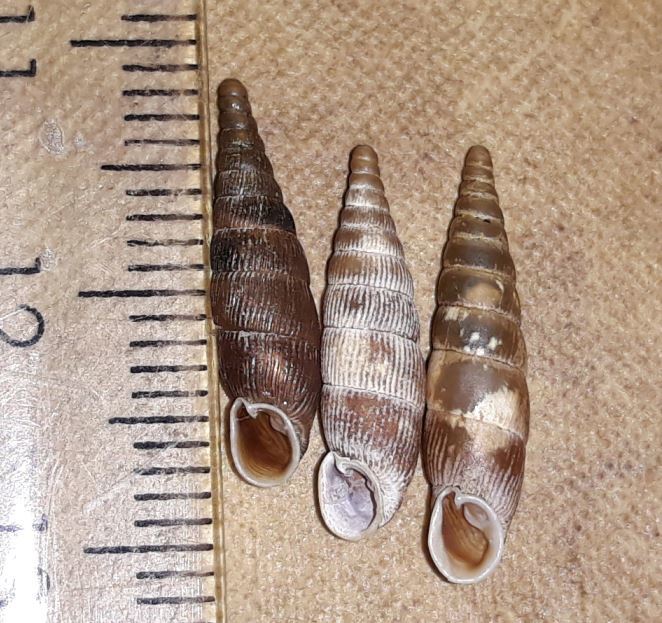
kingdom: Animalia
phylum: Mollusca
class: Gastropoda
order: Stylommatophora
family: Clausiliidae
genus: Macrogastra
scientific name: Macrogastra ventricosa
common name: Ventricose door snail
